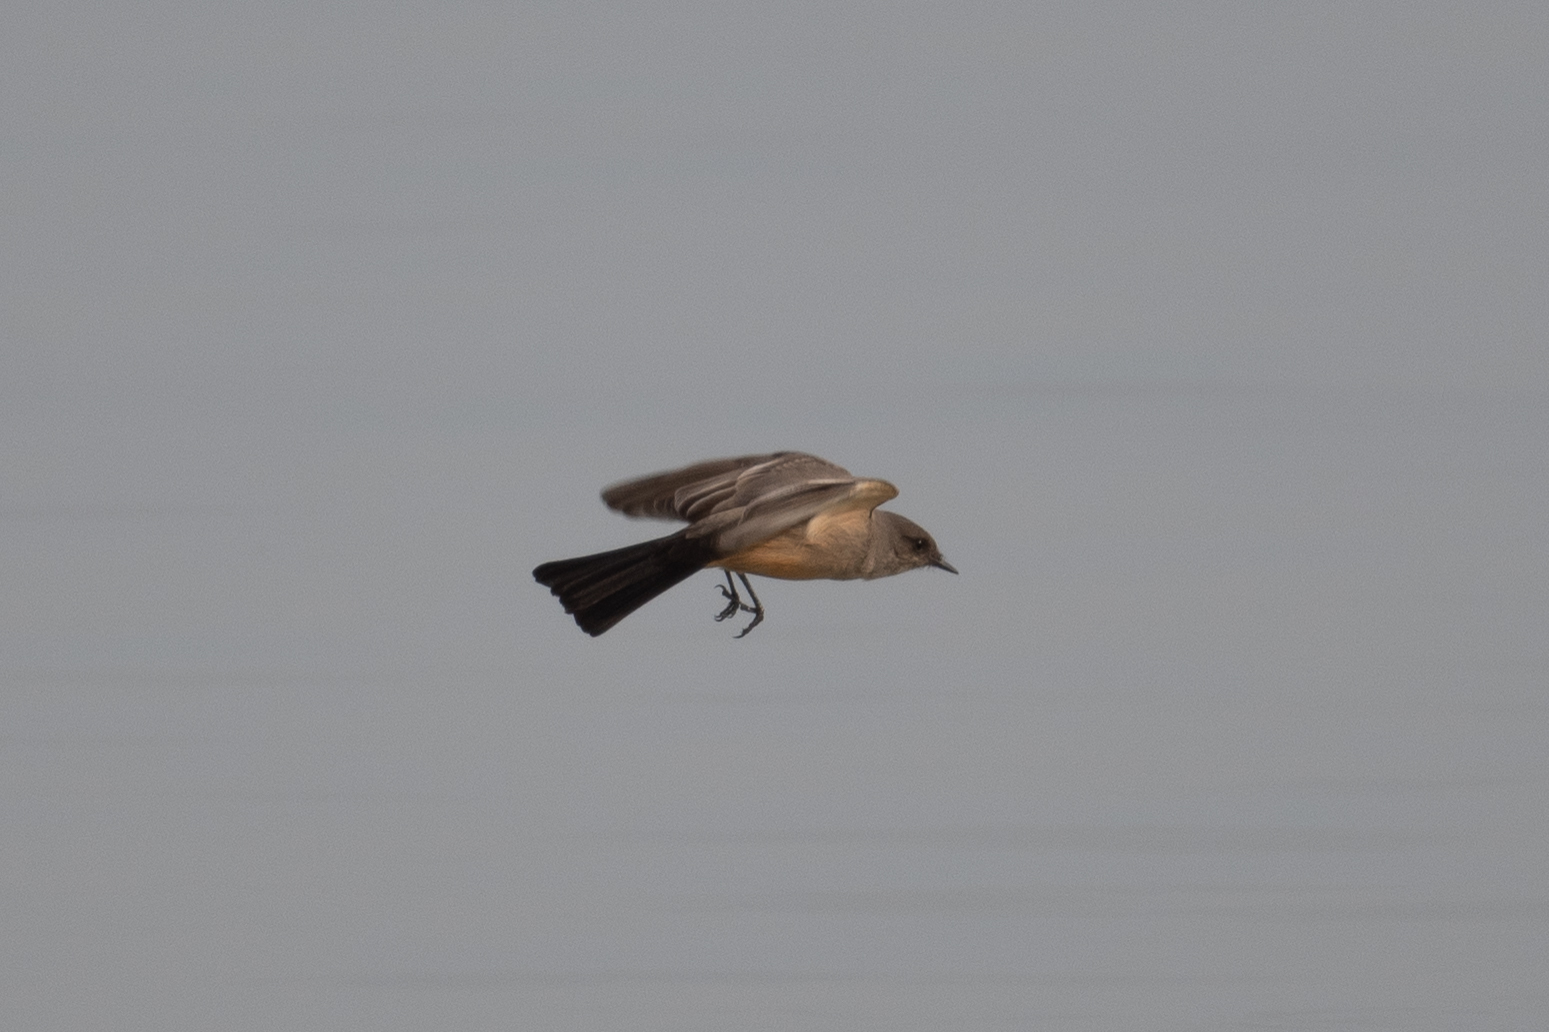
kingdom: Animalia
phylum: Chordata
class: Aves
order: Passeriformes
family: Tyrannidae
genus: Sayornis
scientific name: Sayornis saya
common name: Say's phoebe
